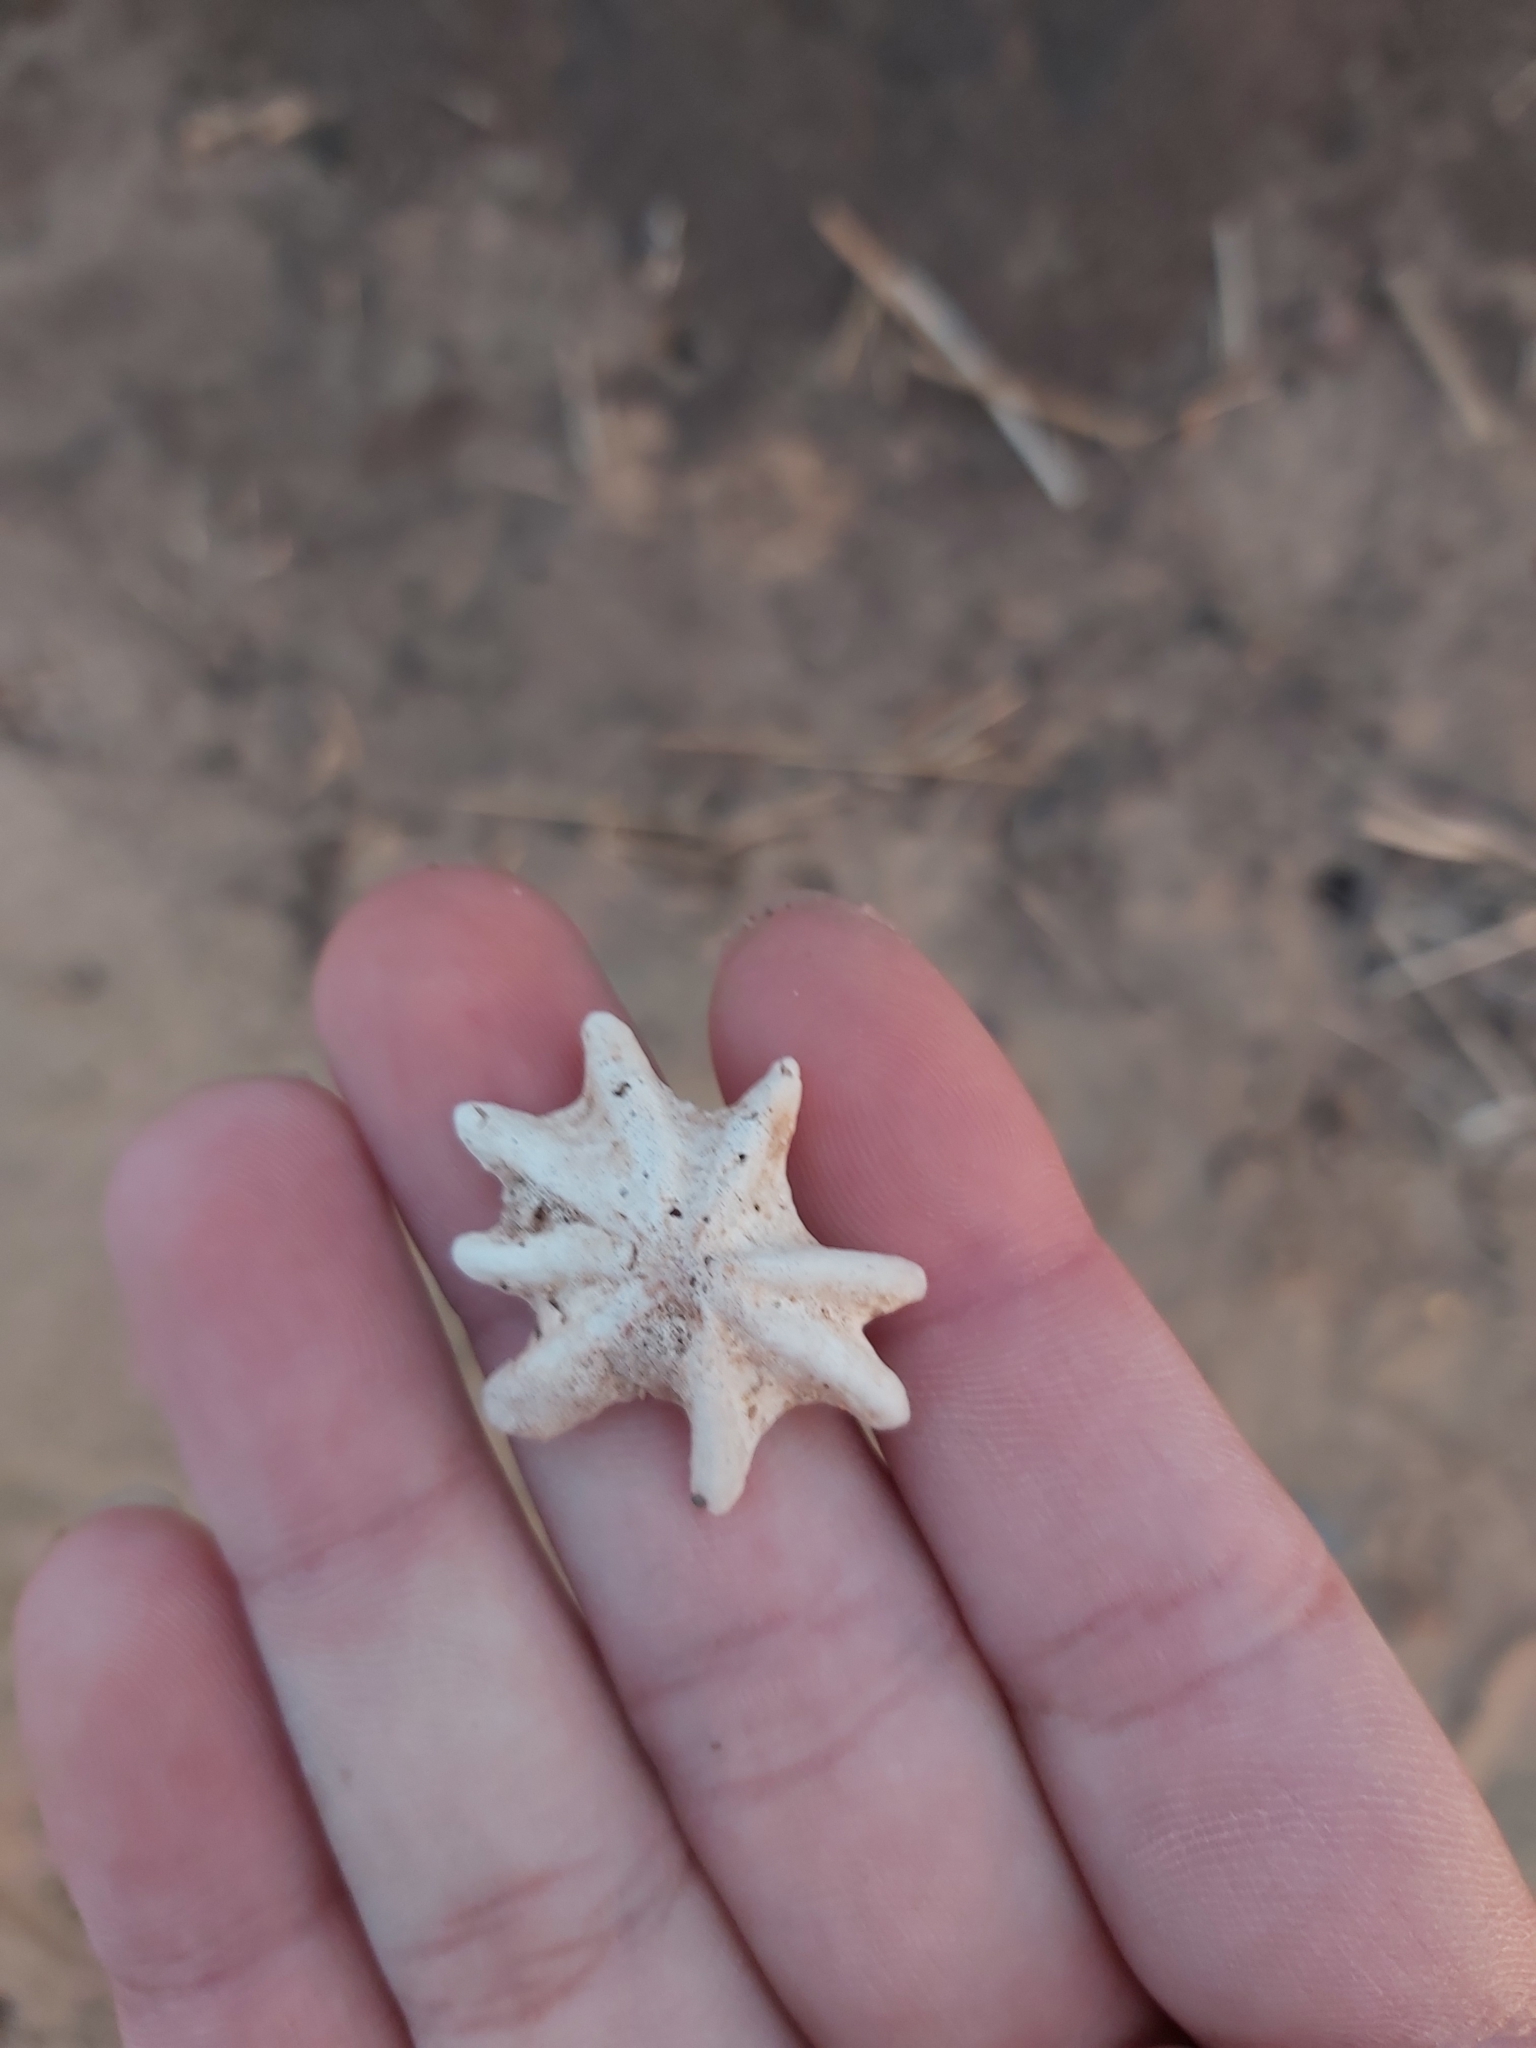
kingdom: Animalia
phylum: Mollusca
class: Gastropoda
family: Patellidae
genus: Scutellastra
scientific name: Scutellastra chapmani
